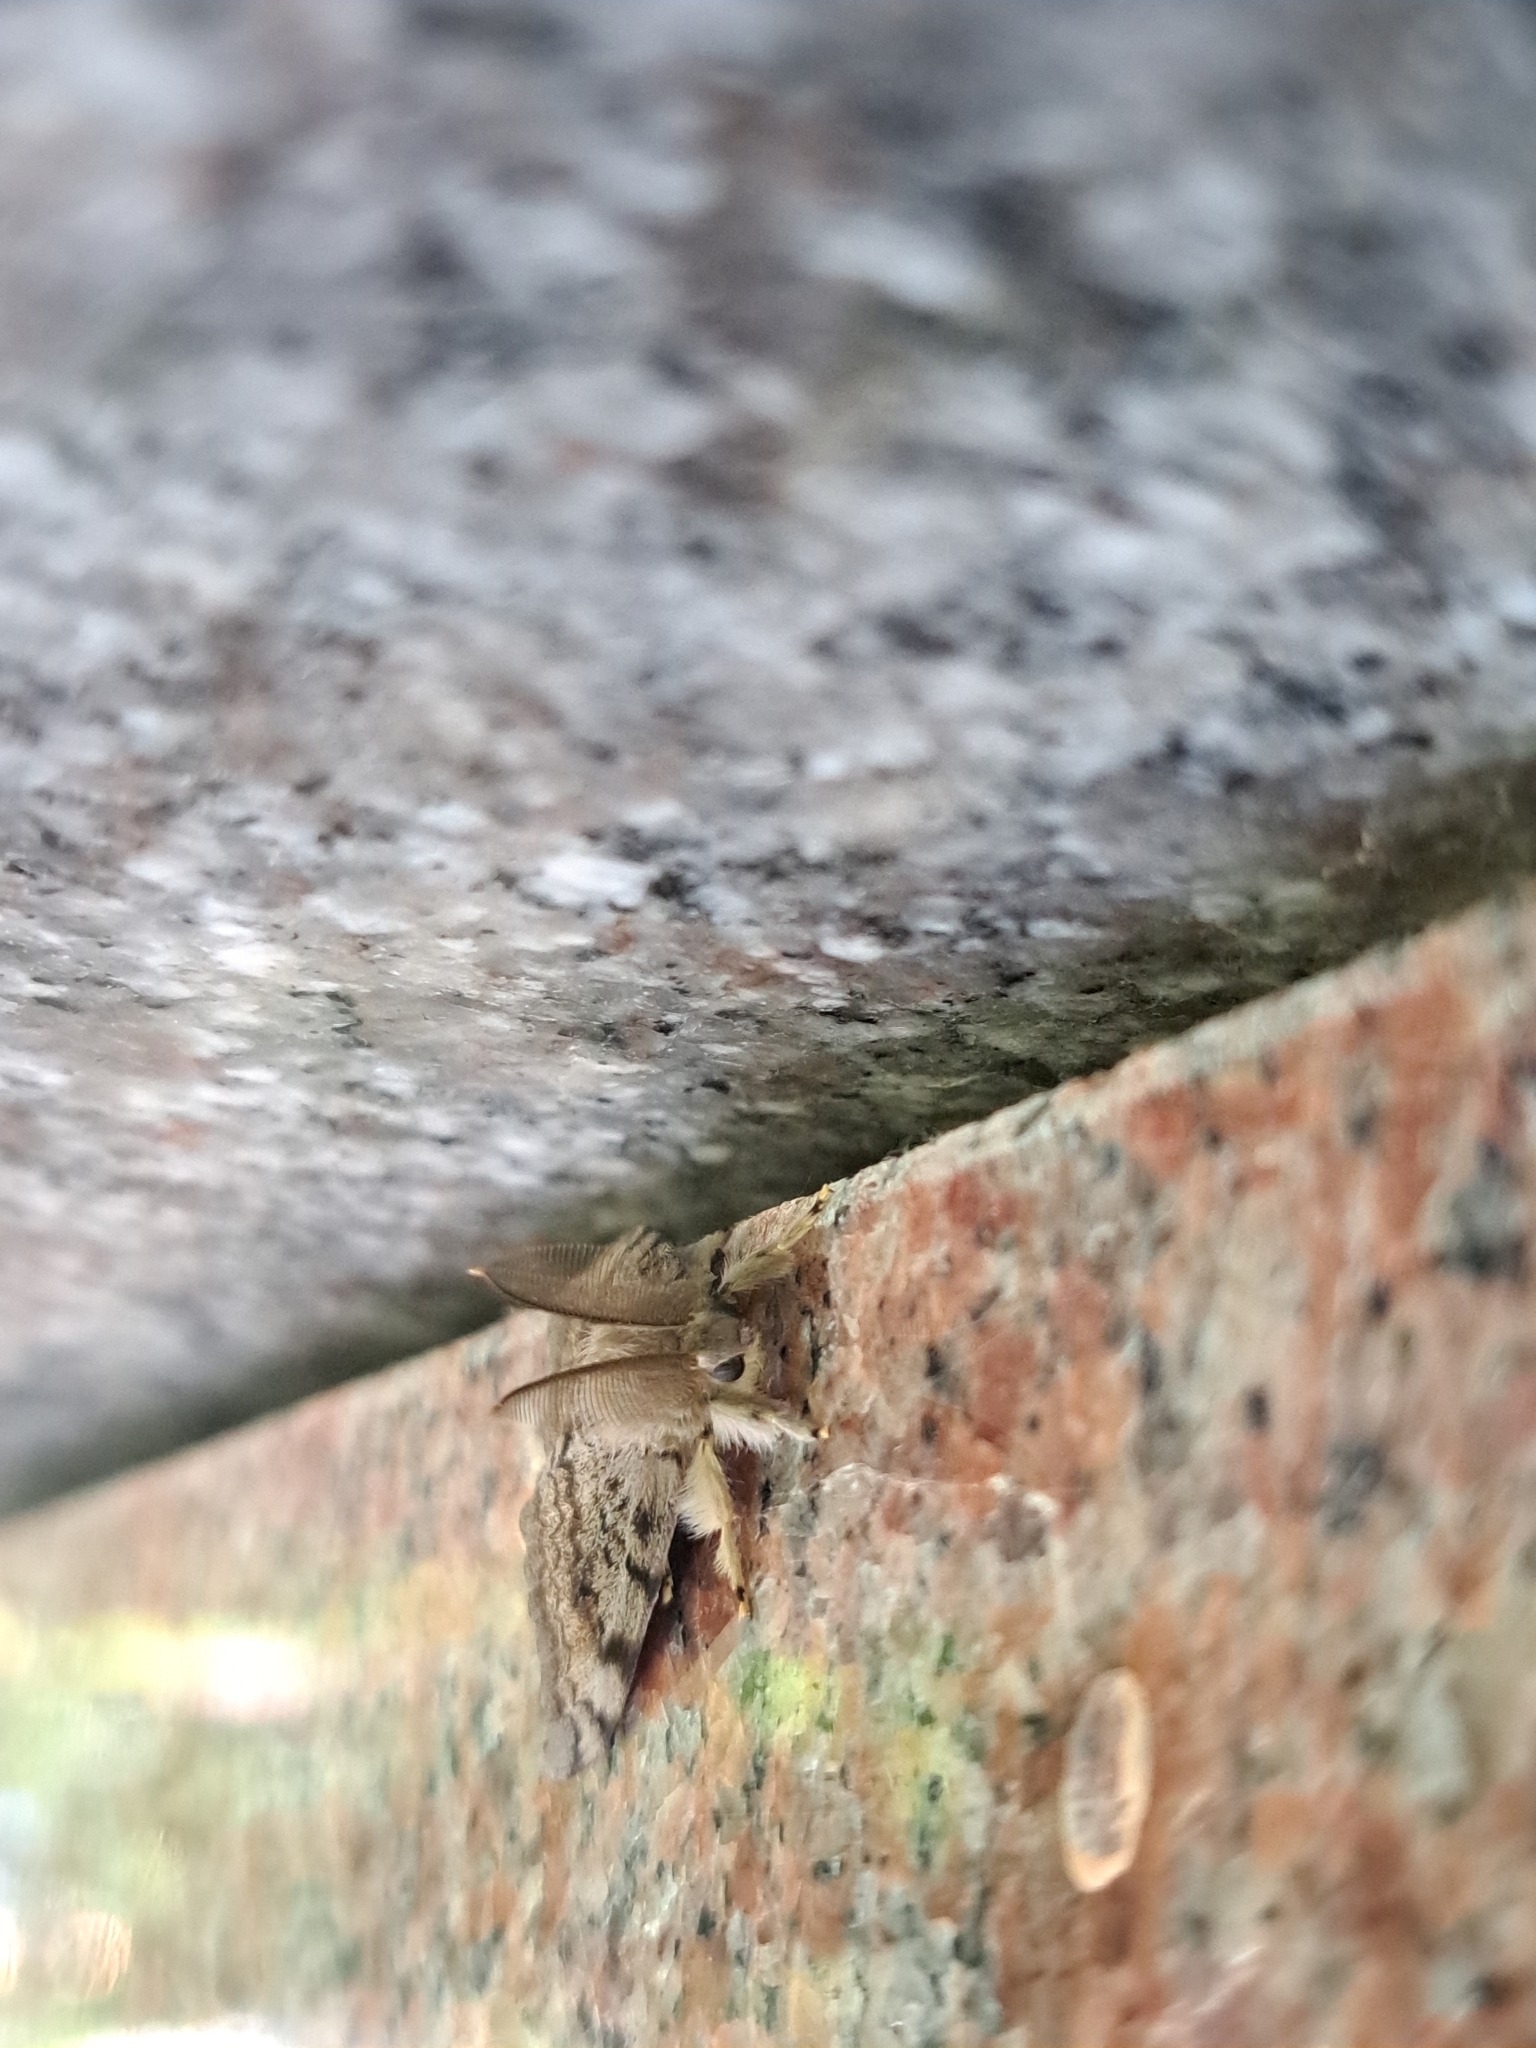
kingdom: Animalia
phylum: Arthropoda
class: Insecta
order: Lepidoptera
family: Erebidae
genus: Lymantria
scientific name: Lymantria dispar
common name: Gypsy moth
